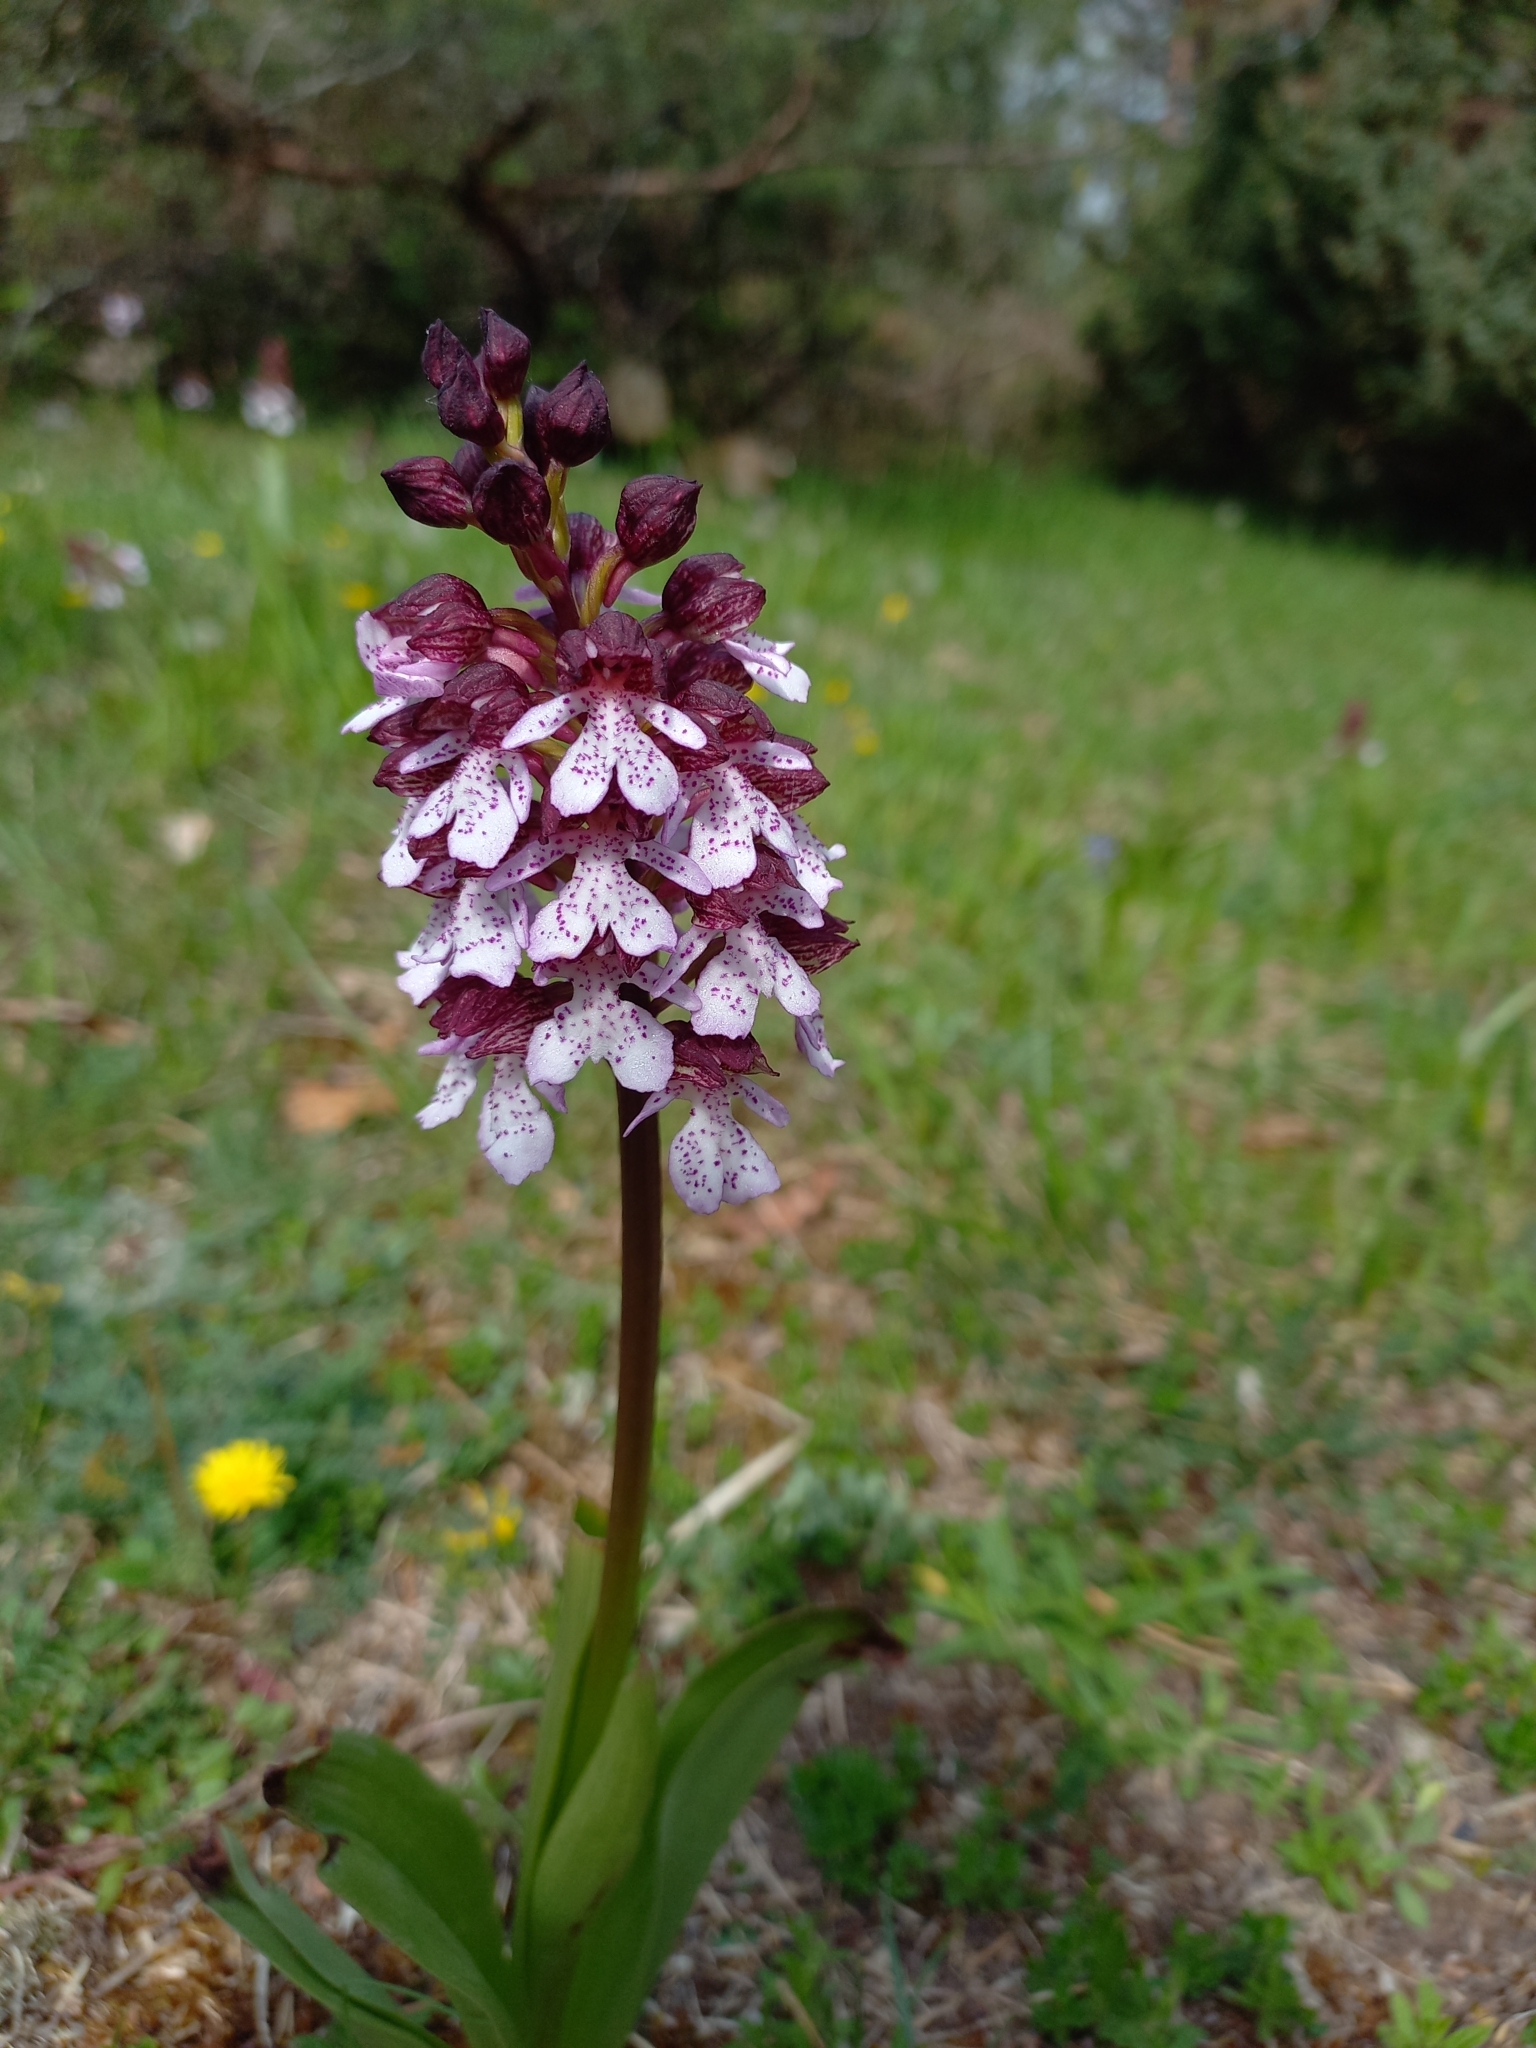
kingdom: Plantae
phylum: Tracheophyta
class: Liliopsida
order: Asparagales
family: Orchidaceae
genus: Orchis
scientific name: Orchis purpurea
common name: Lady orchid
